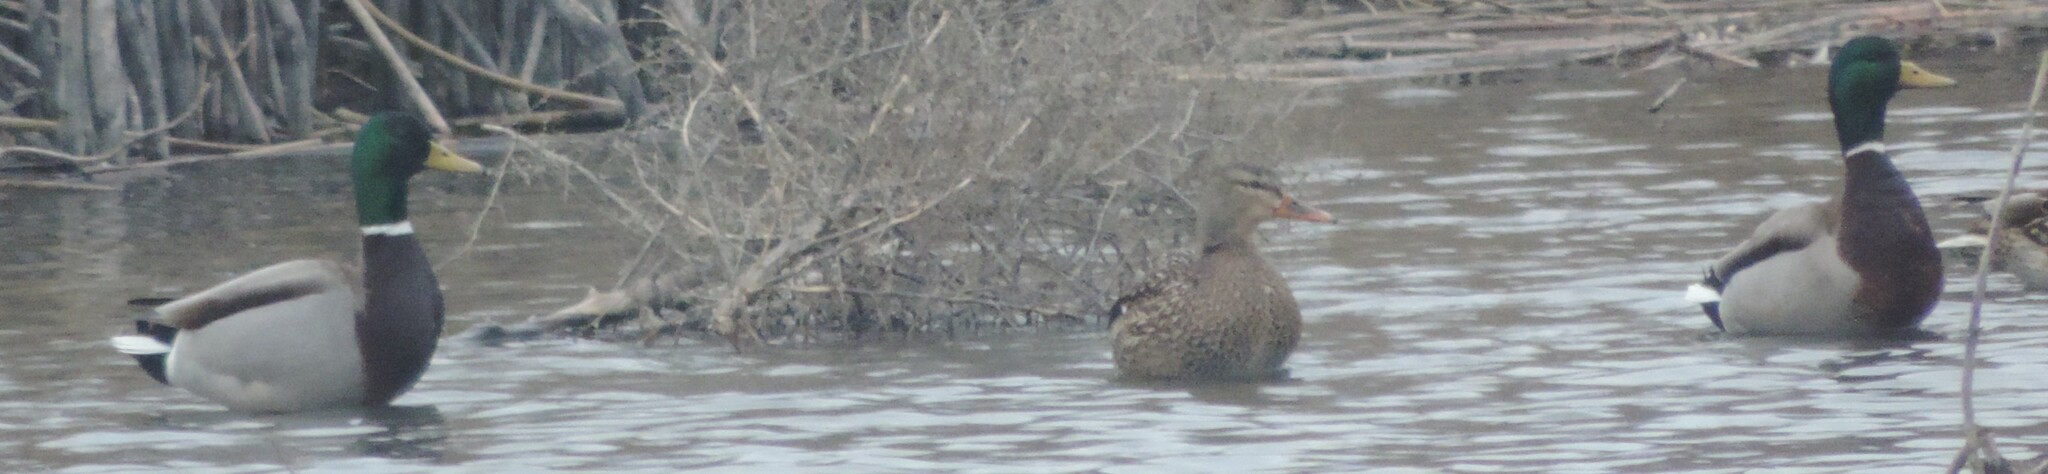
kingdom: Animalia
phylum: Chordata
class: Aves
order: Anseriformes
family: Anatidae
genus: Anas
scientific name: Anas platyrhynchos
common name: Mallard
